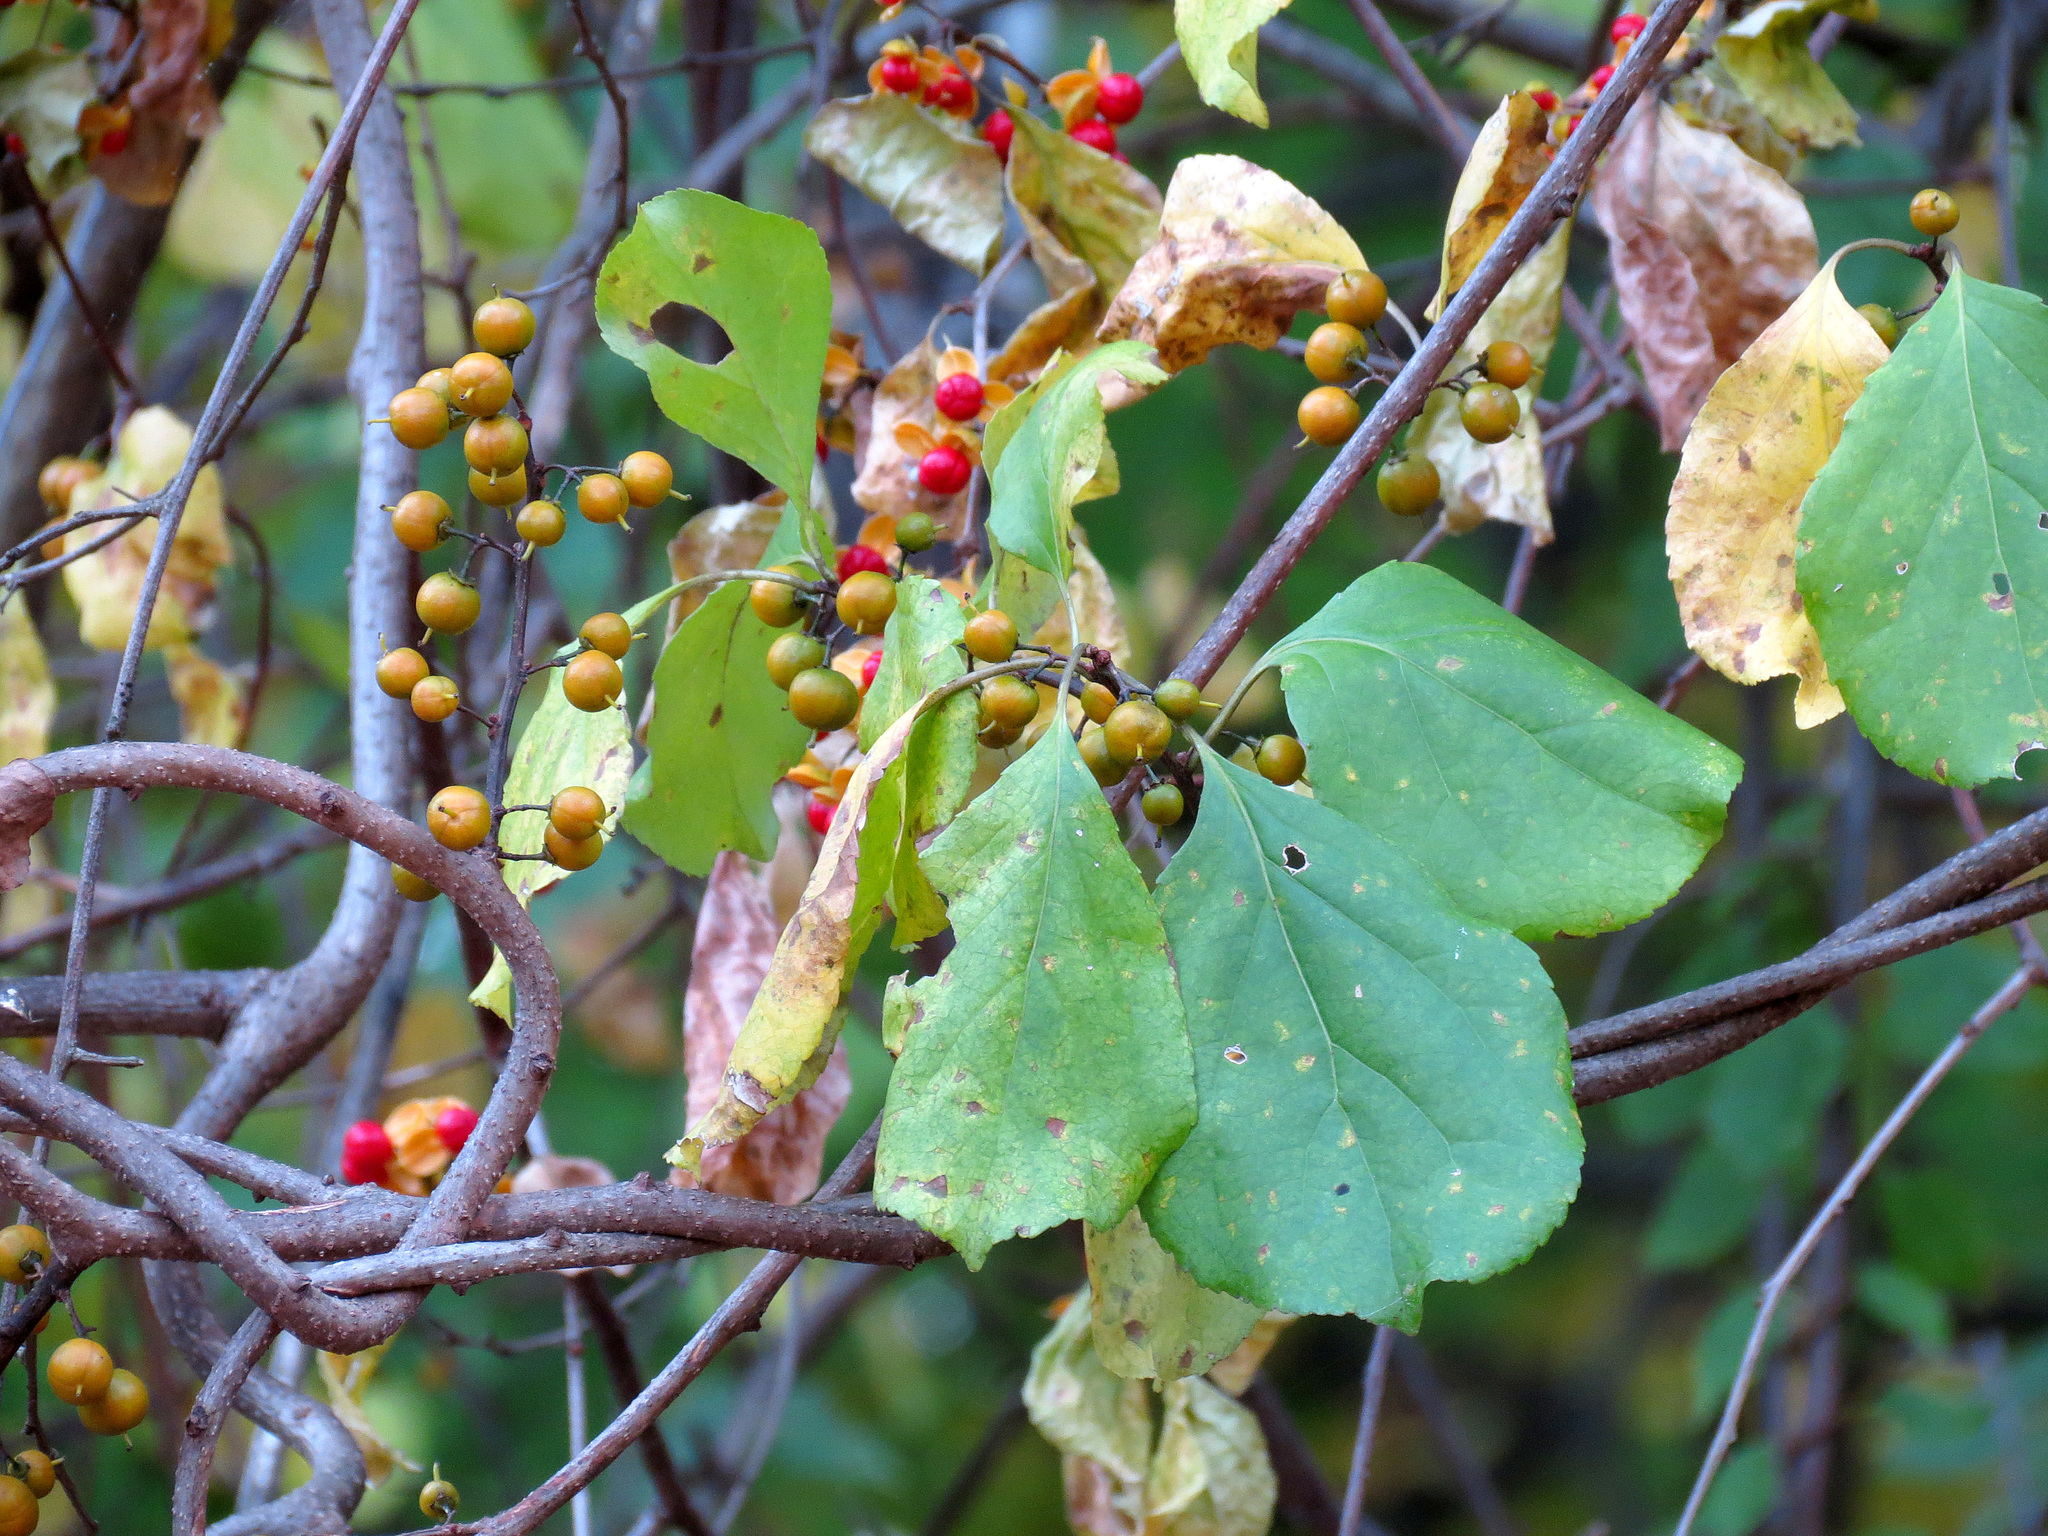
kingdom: Plantae
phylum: Tracheophyta
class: Magnoliopsida
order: Celastrales
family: Celastraceae
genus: Celastrus
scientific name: Celastrus orbiculatus
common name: Oriental bittersweet
